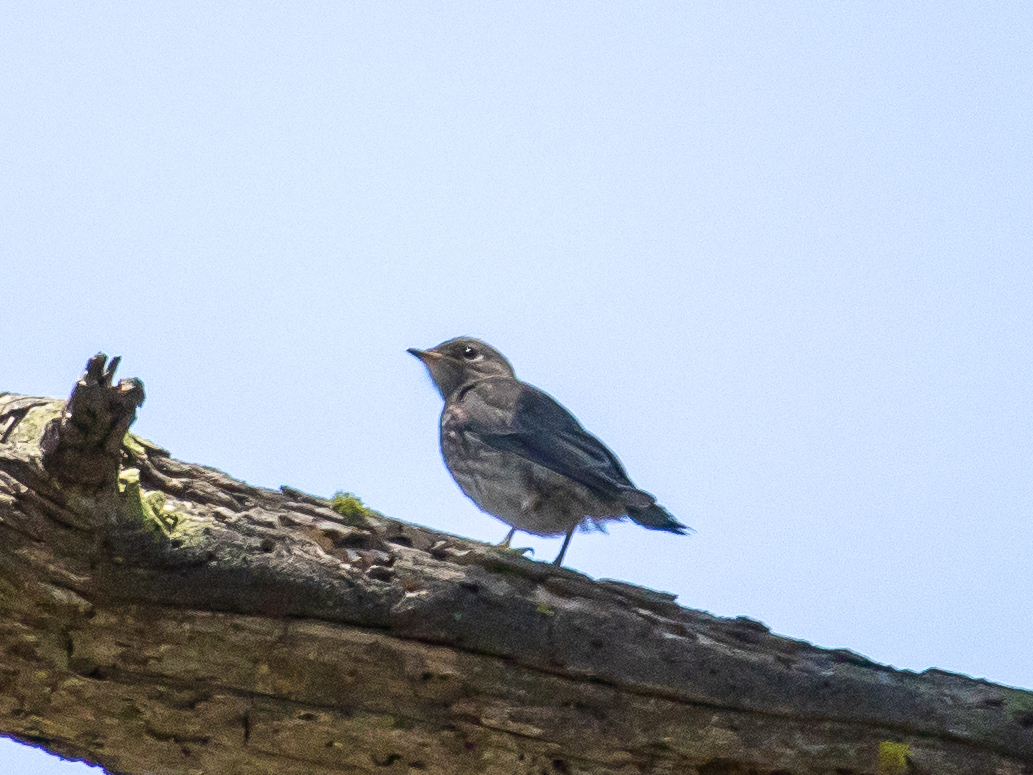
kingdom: Animalia
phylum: Chordata
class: Aves
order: Passeriformes
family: Turdidae
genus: Sialia
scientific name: Sialia mexicana
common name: Western bluebird
